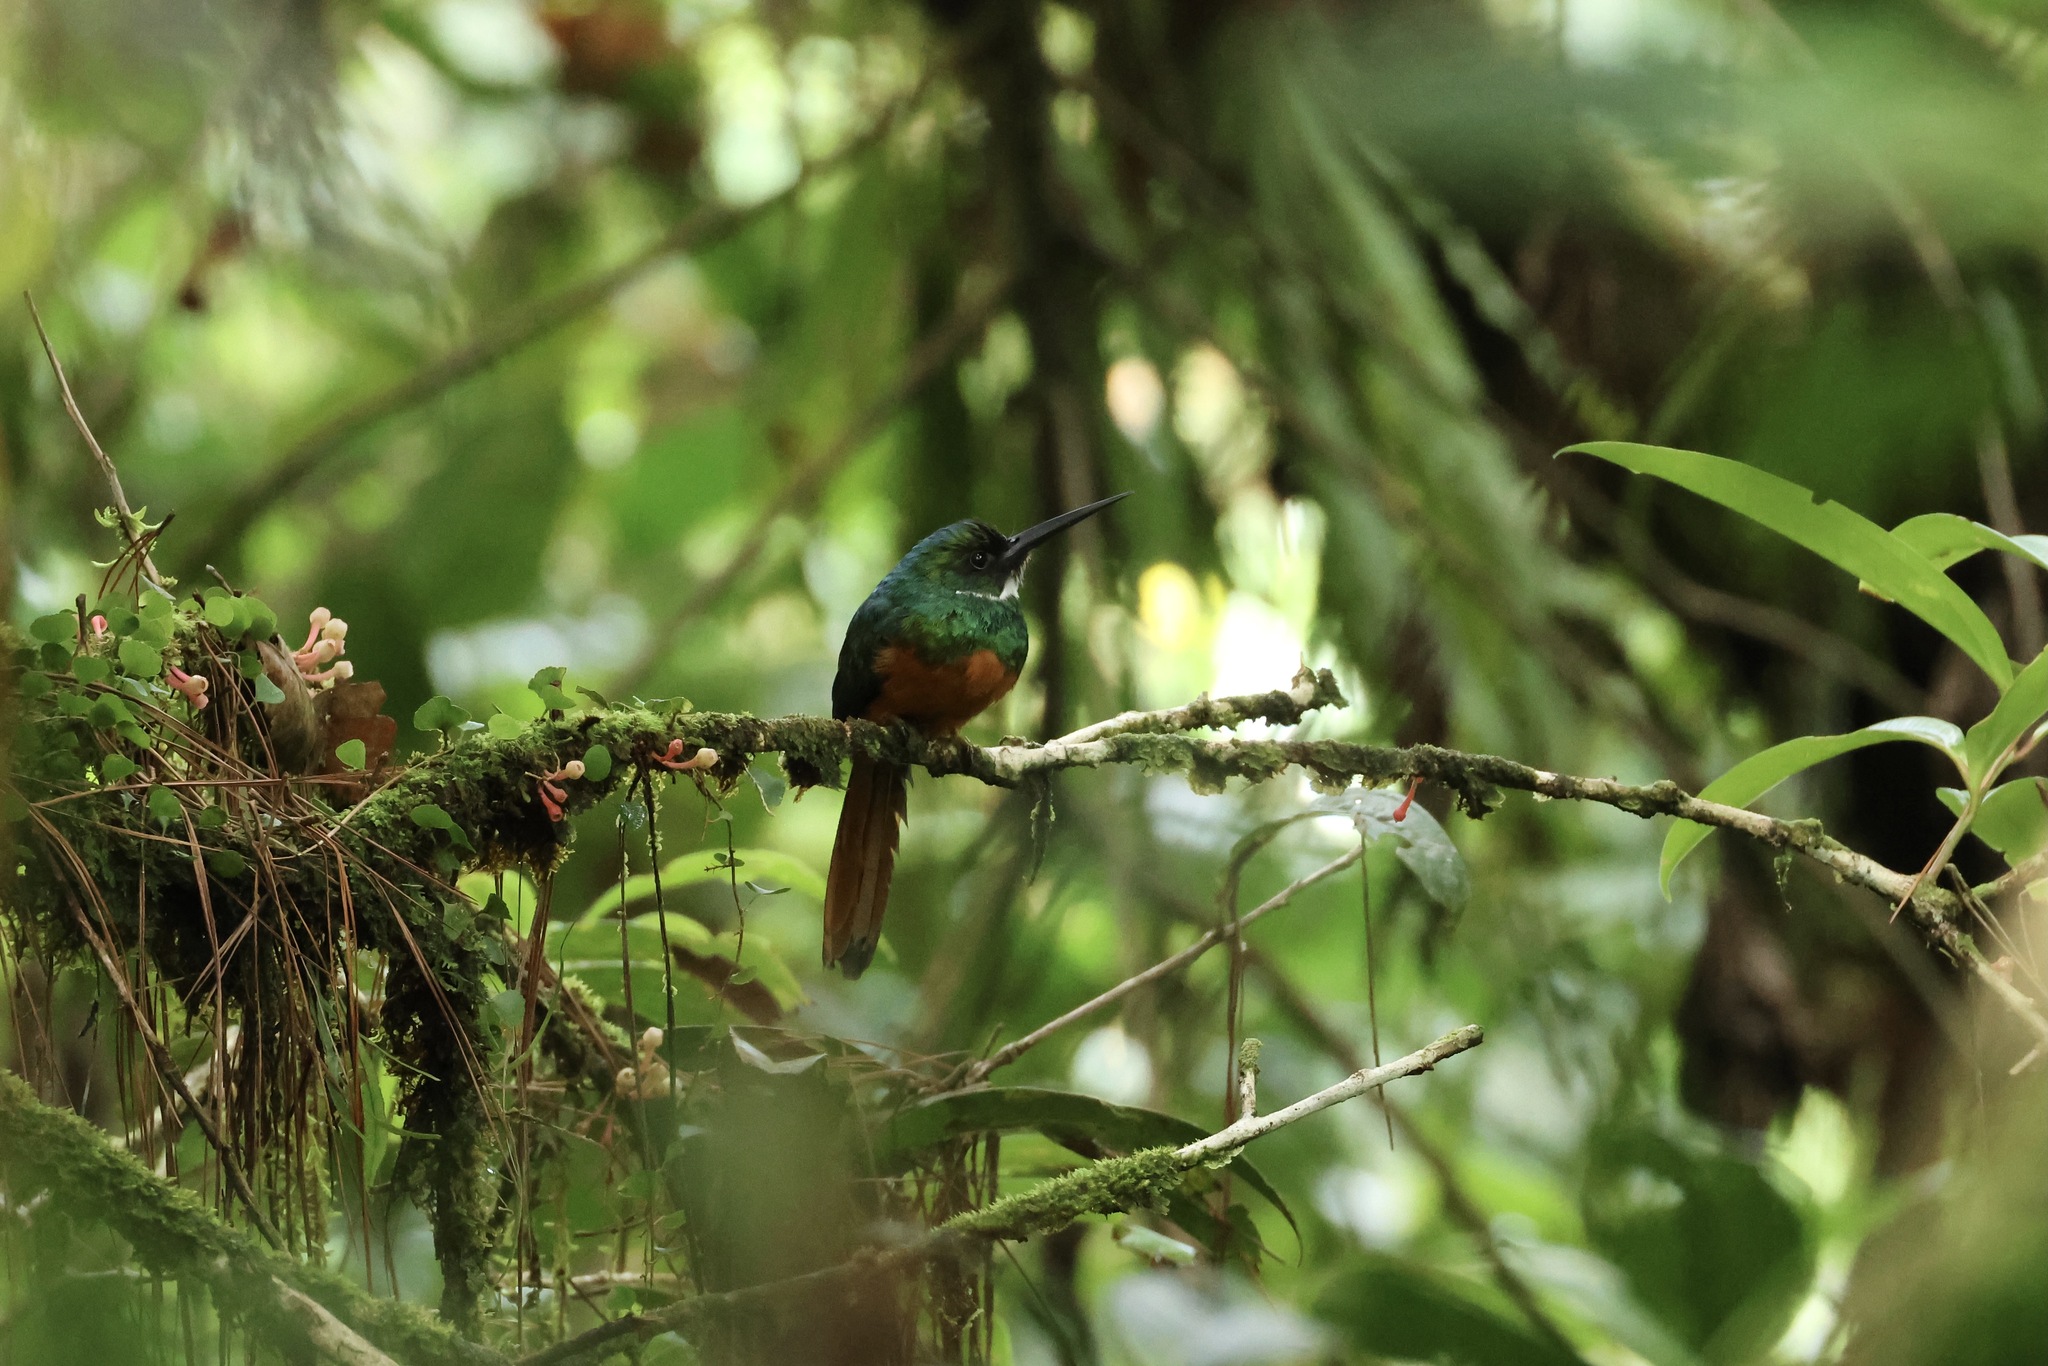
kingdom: Animalia
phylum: Chordata
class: Aves
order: Piciformes
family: Galbulidae
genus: Galbula
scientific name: Galbula ruficauda
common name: Rufous-tailed jacamar
